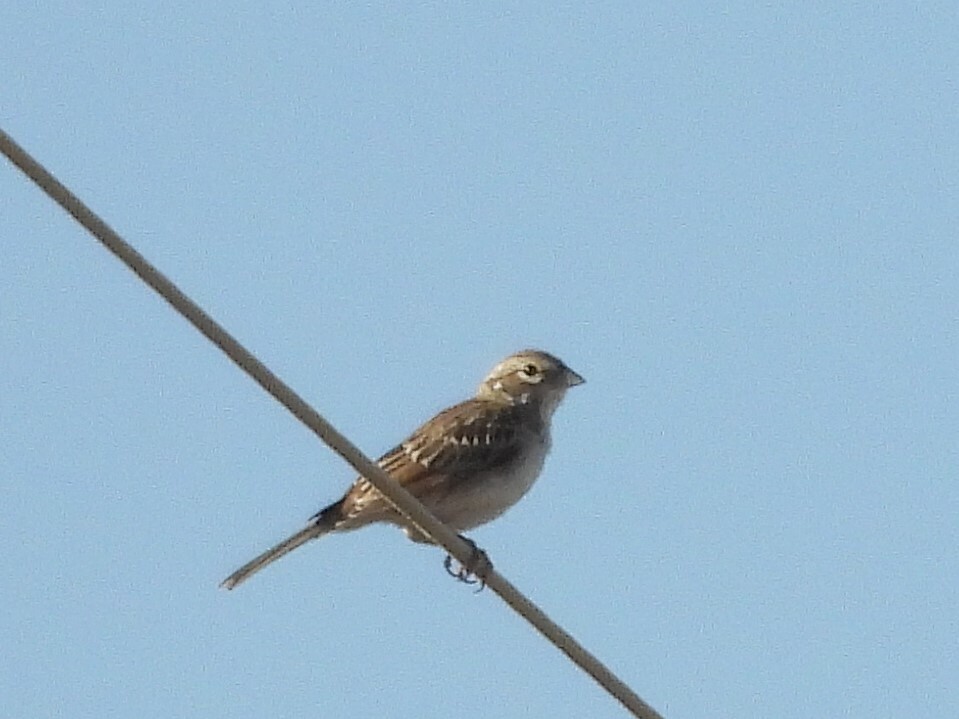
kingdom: Animalia
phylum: Chordata
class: Aves
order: Passeriformes
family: Passerellidae
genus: Chondestes
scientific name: Chondestes grammacus
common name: Lark sparrow
